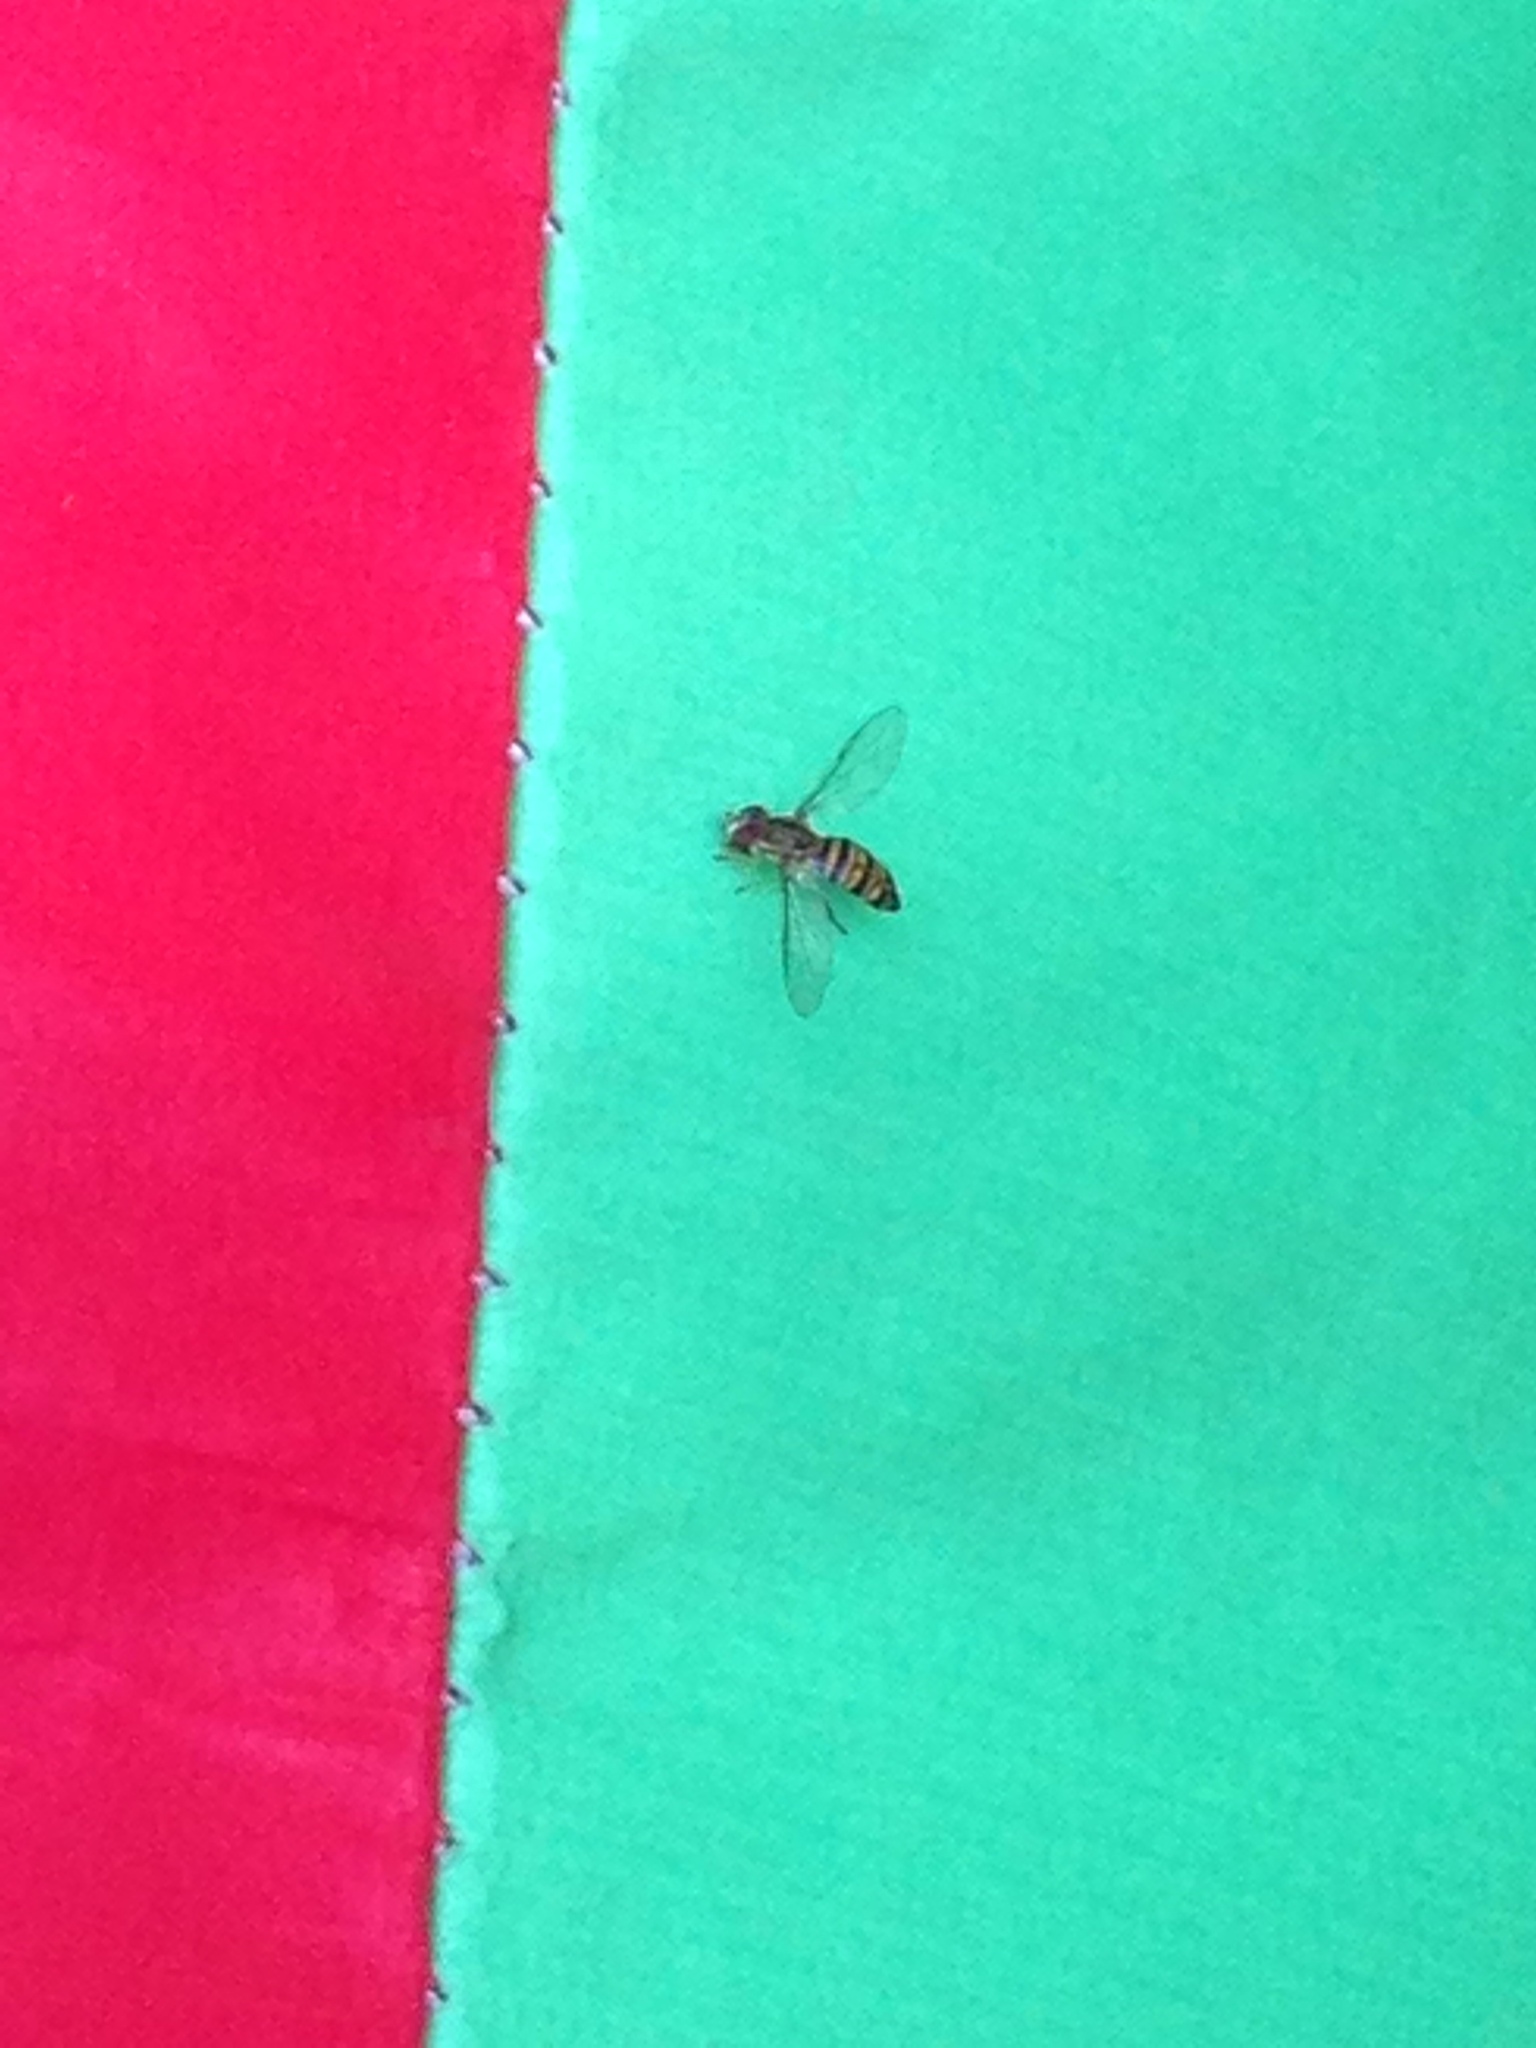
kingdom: Animalia
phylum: Arthropoda
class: Insecta
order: Diptera
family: Syrphidae
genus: Toxomerus
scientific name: Toxomerus politus
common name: Maize calligrapher
